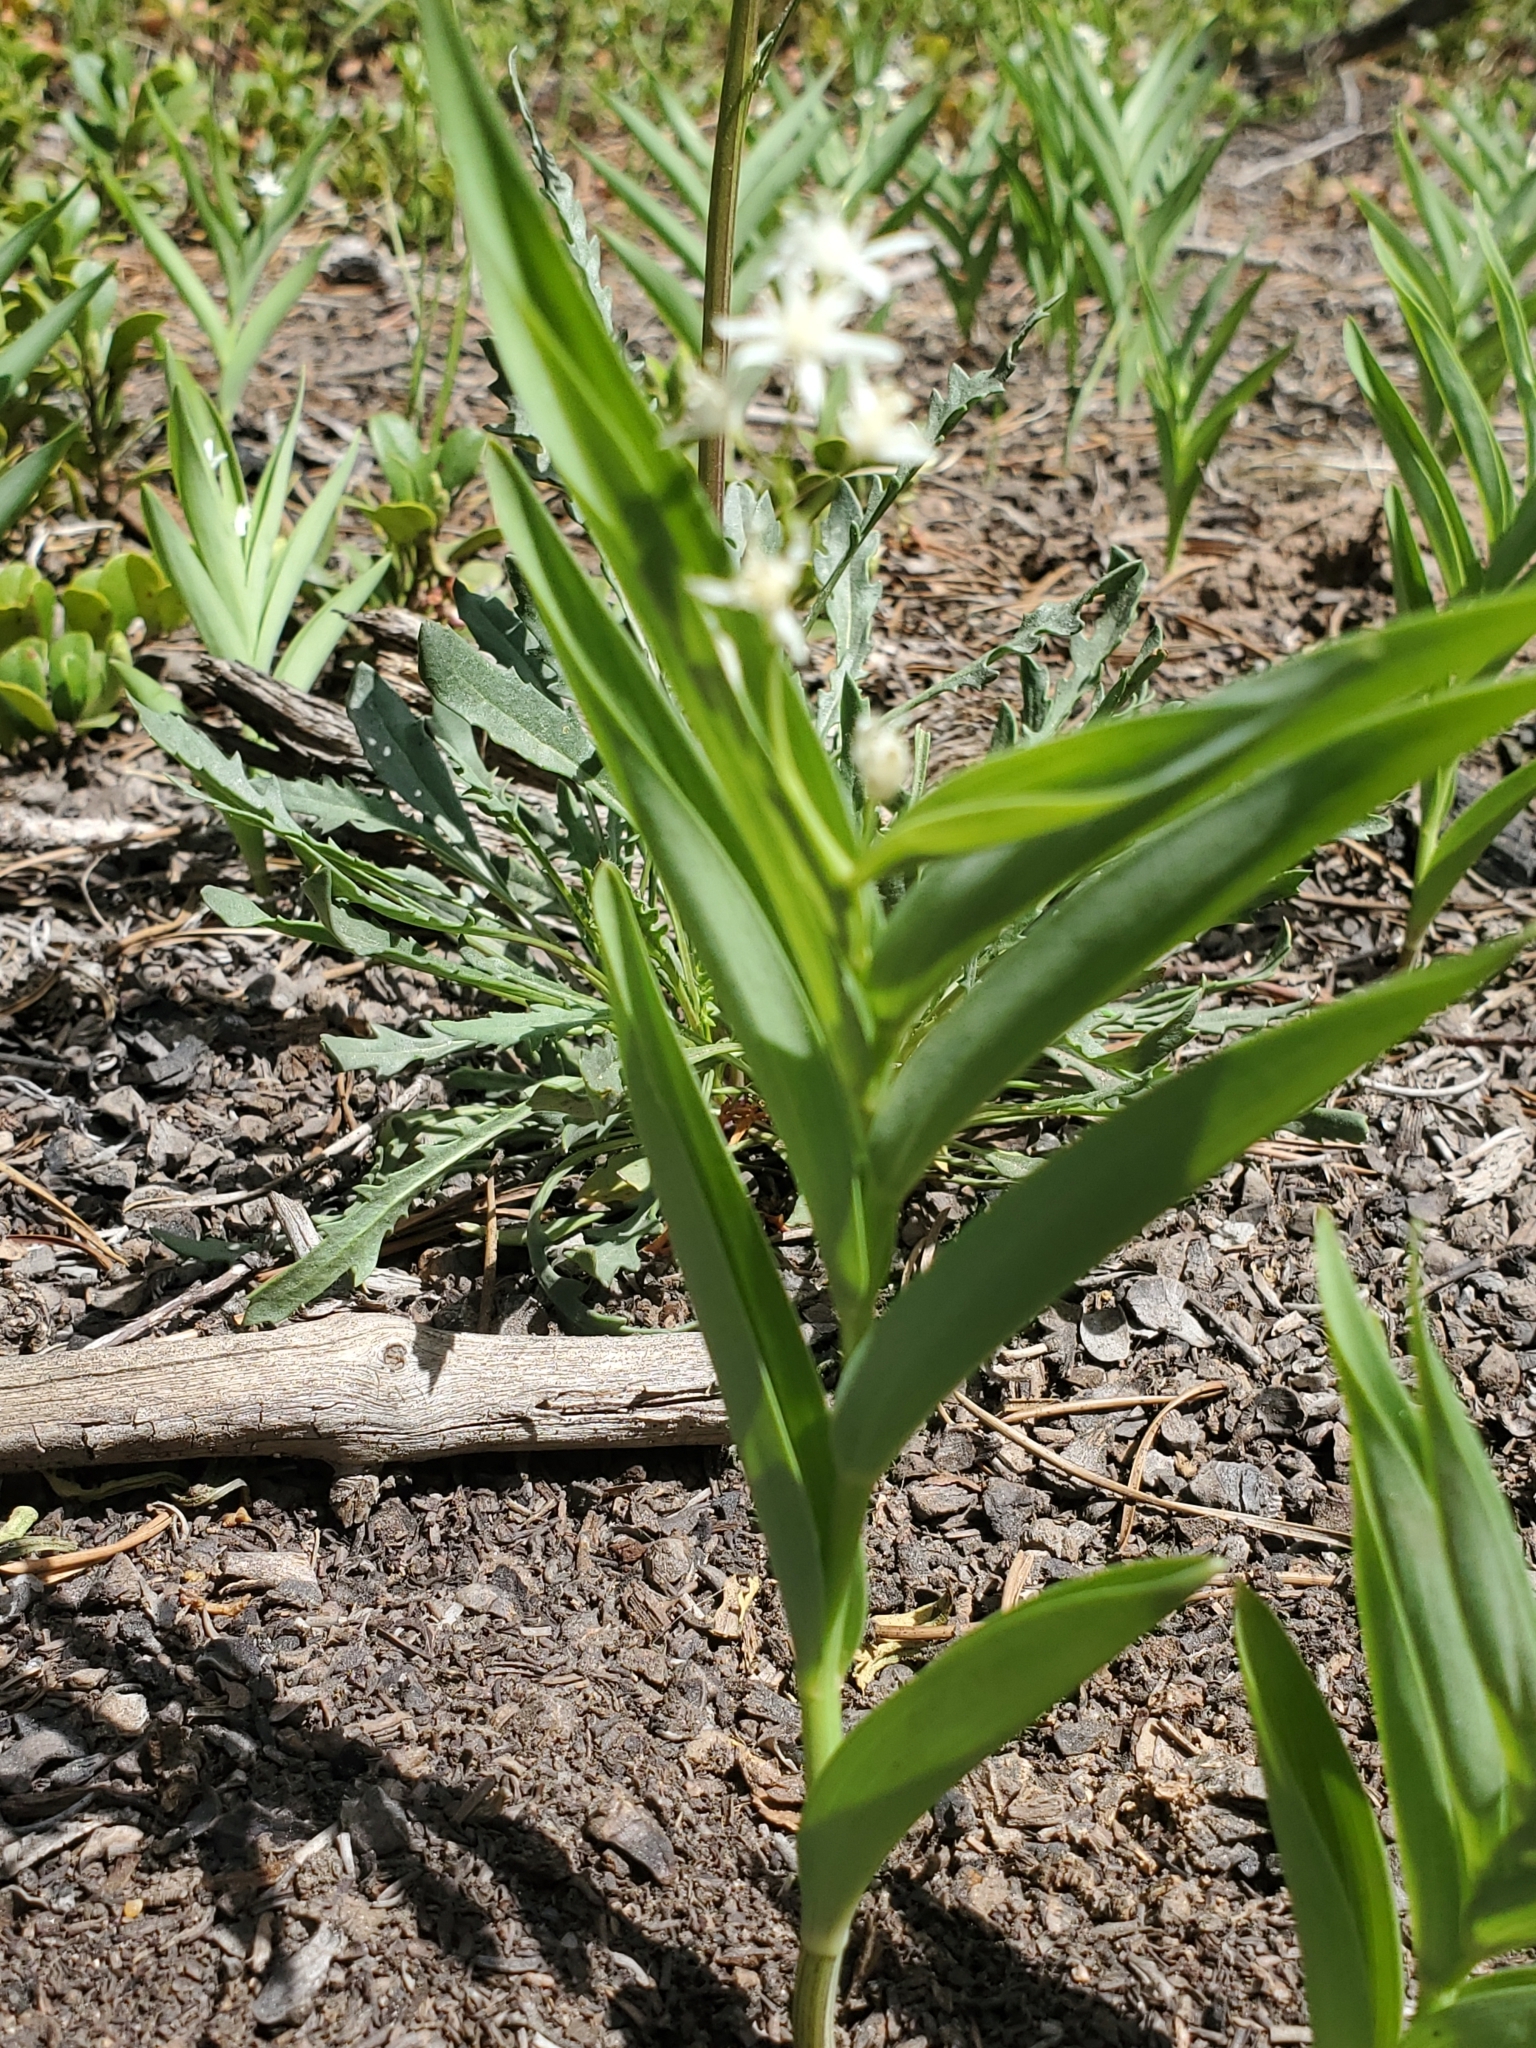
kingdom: Plantae
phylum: Tracheophyta
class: Liliopsida
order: Asparagales
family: Asparagaceae
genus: Maianthemum
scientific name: Maianthemum stellatum
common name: Little false solomon's seal
